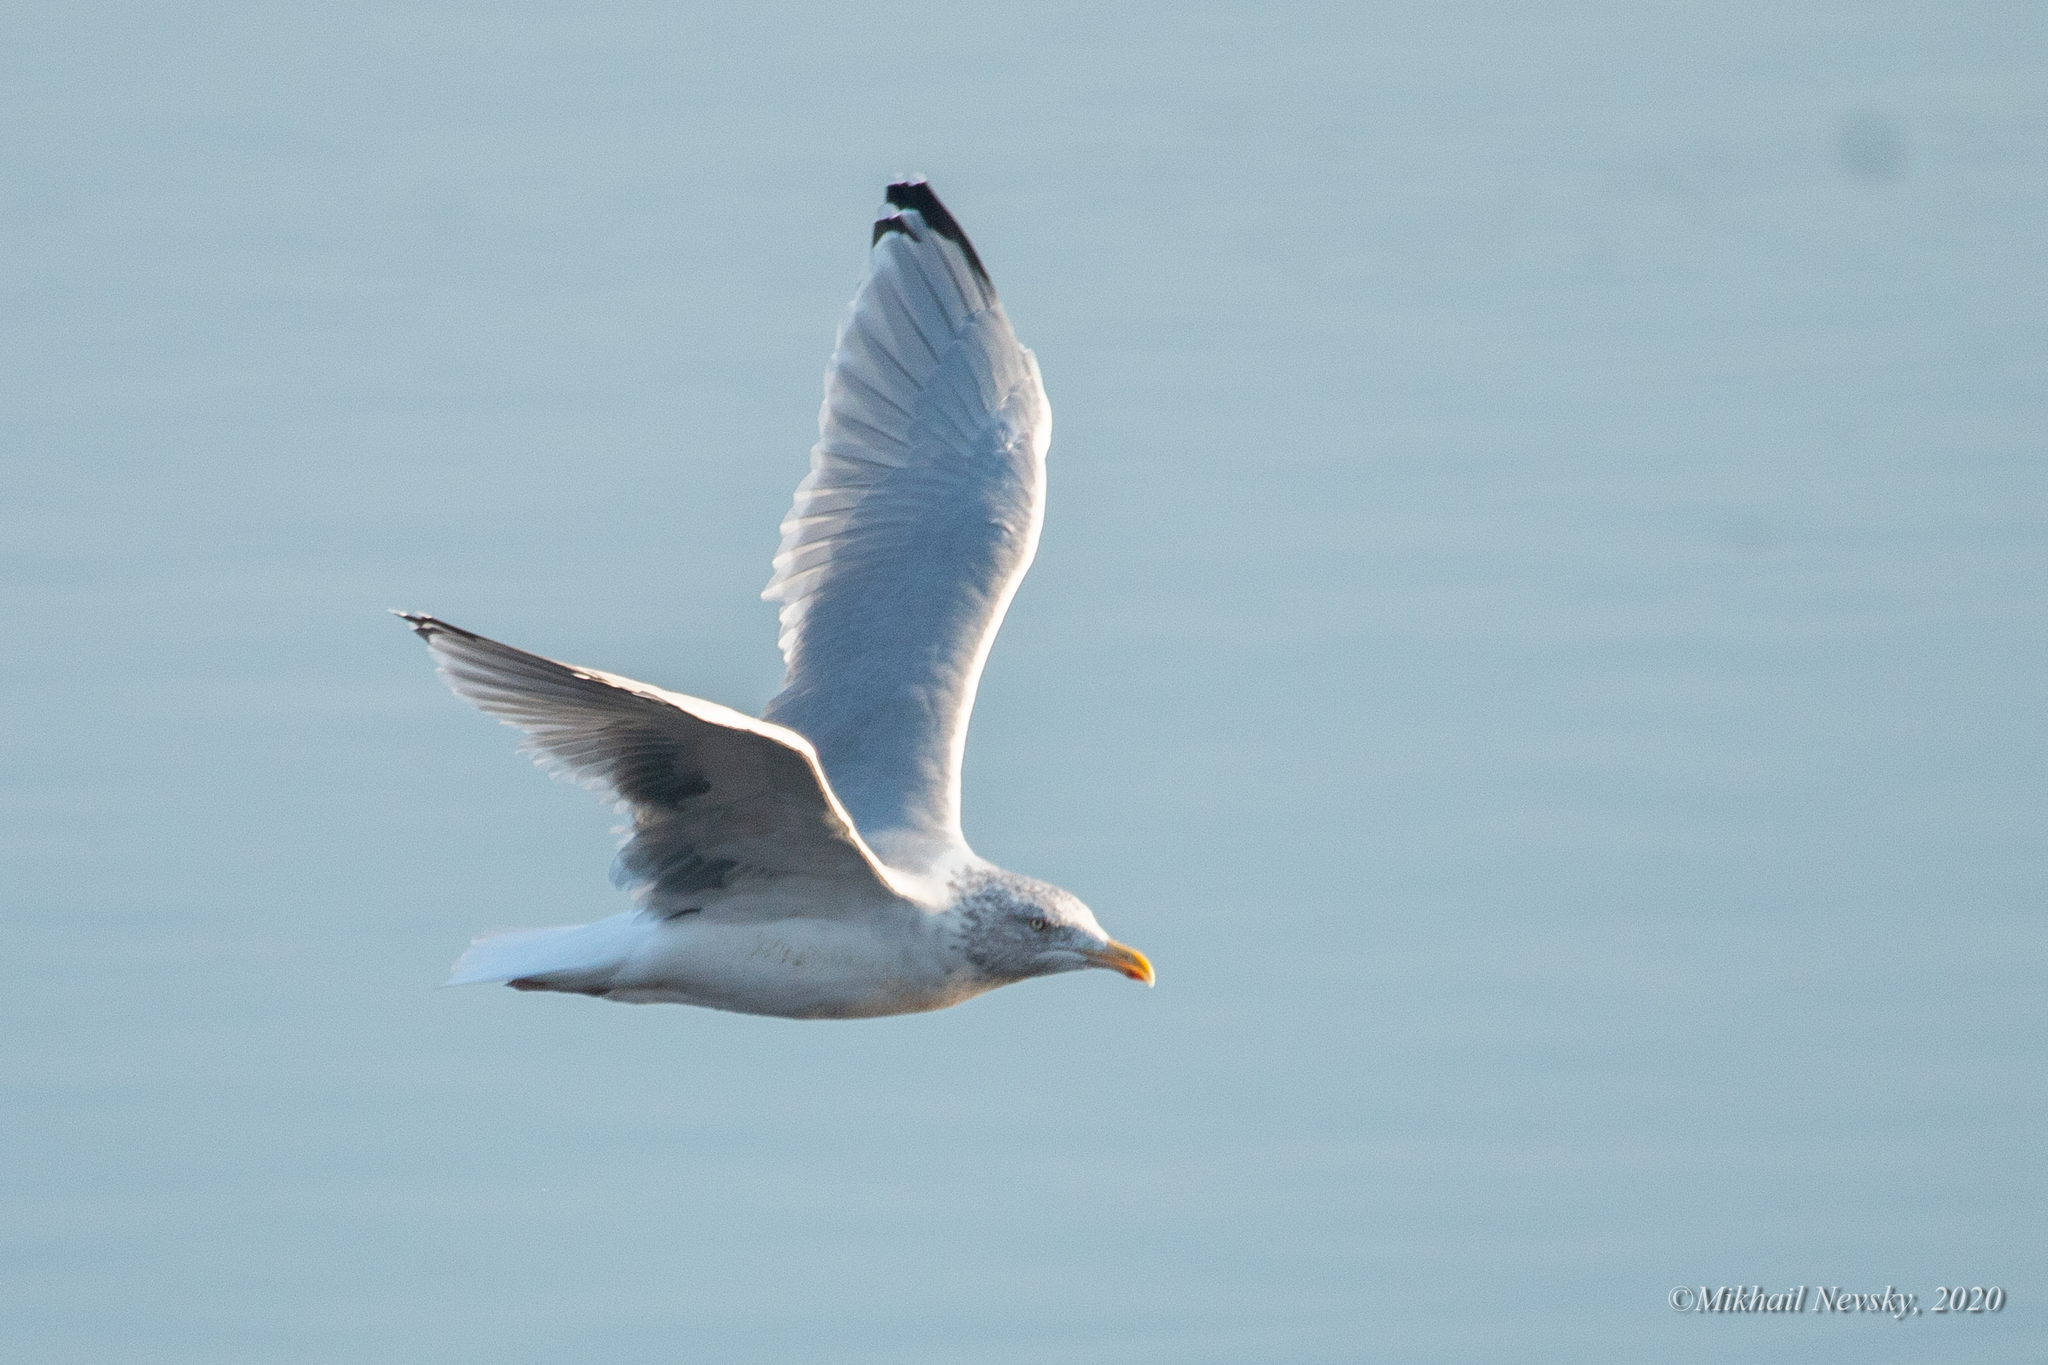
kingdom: Animalia
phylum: Chordata
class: Aves
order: Charadriiformes
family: Laridae
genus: Larus
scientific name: Larus argentatus
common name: Herring gull
